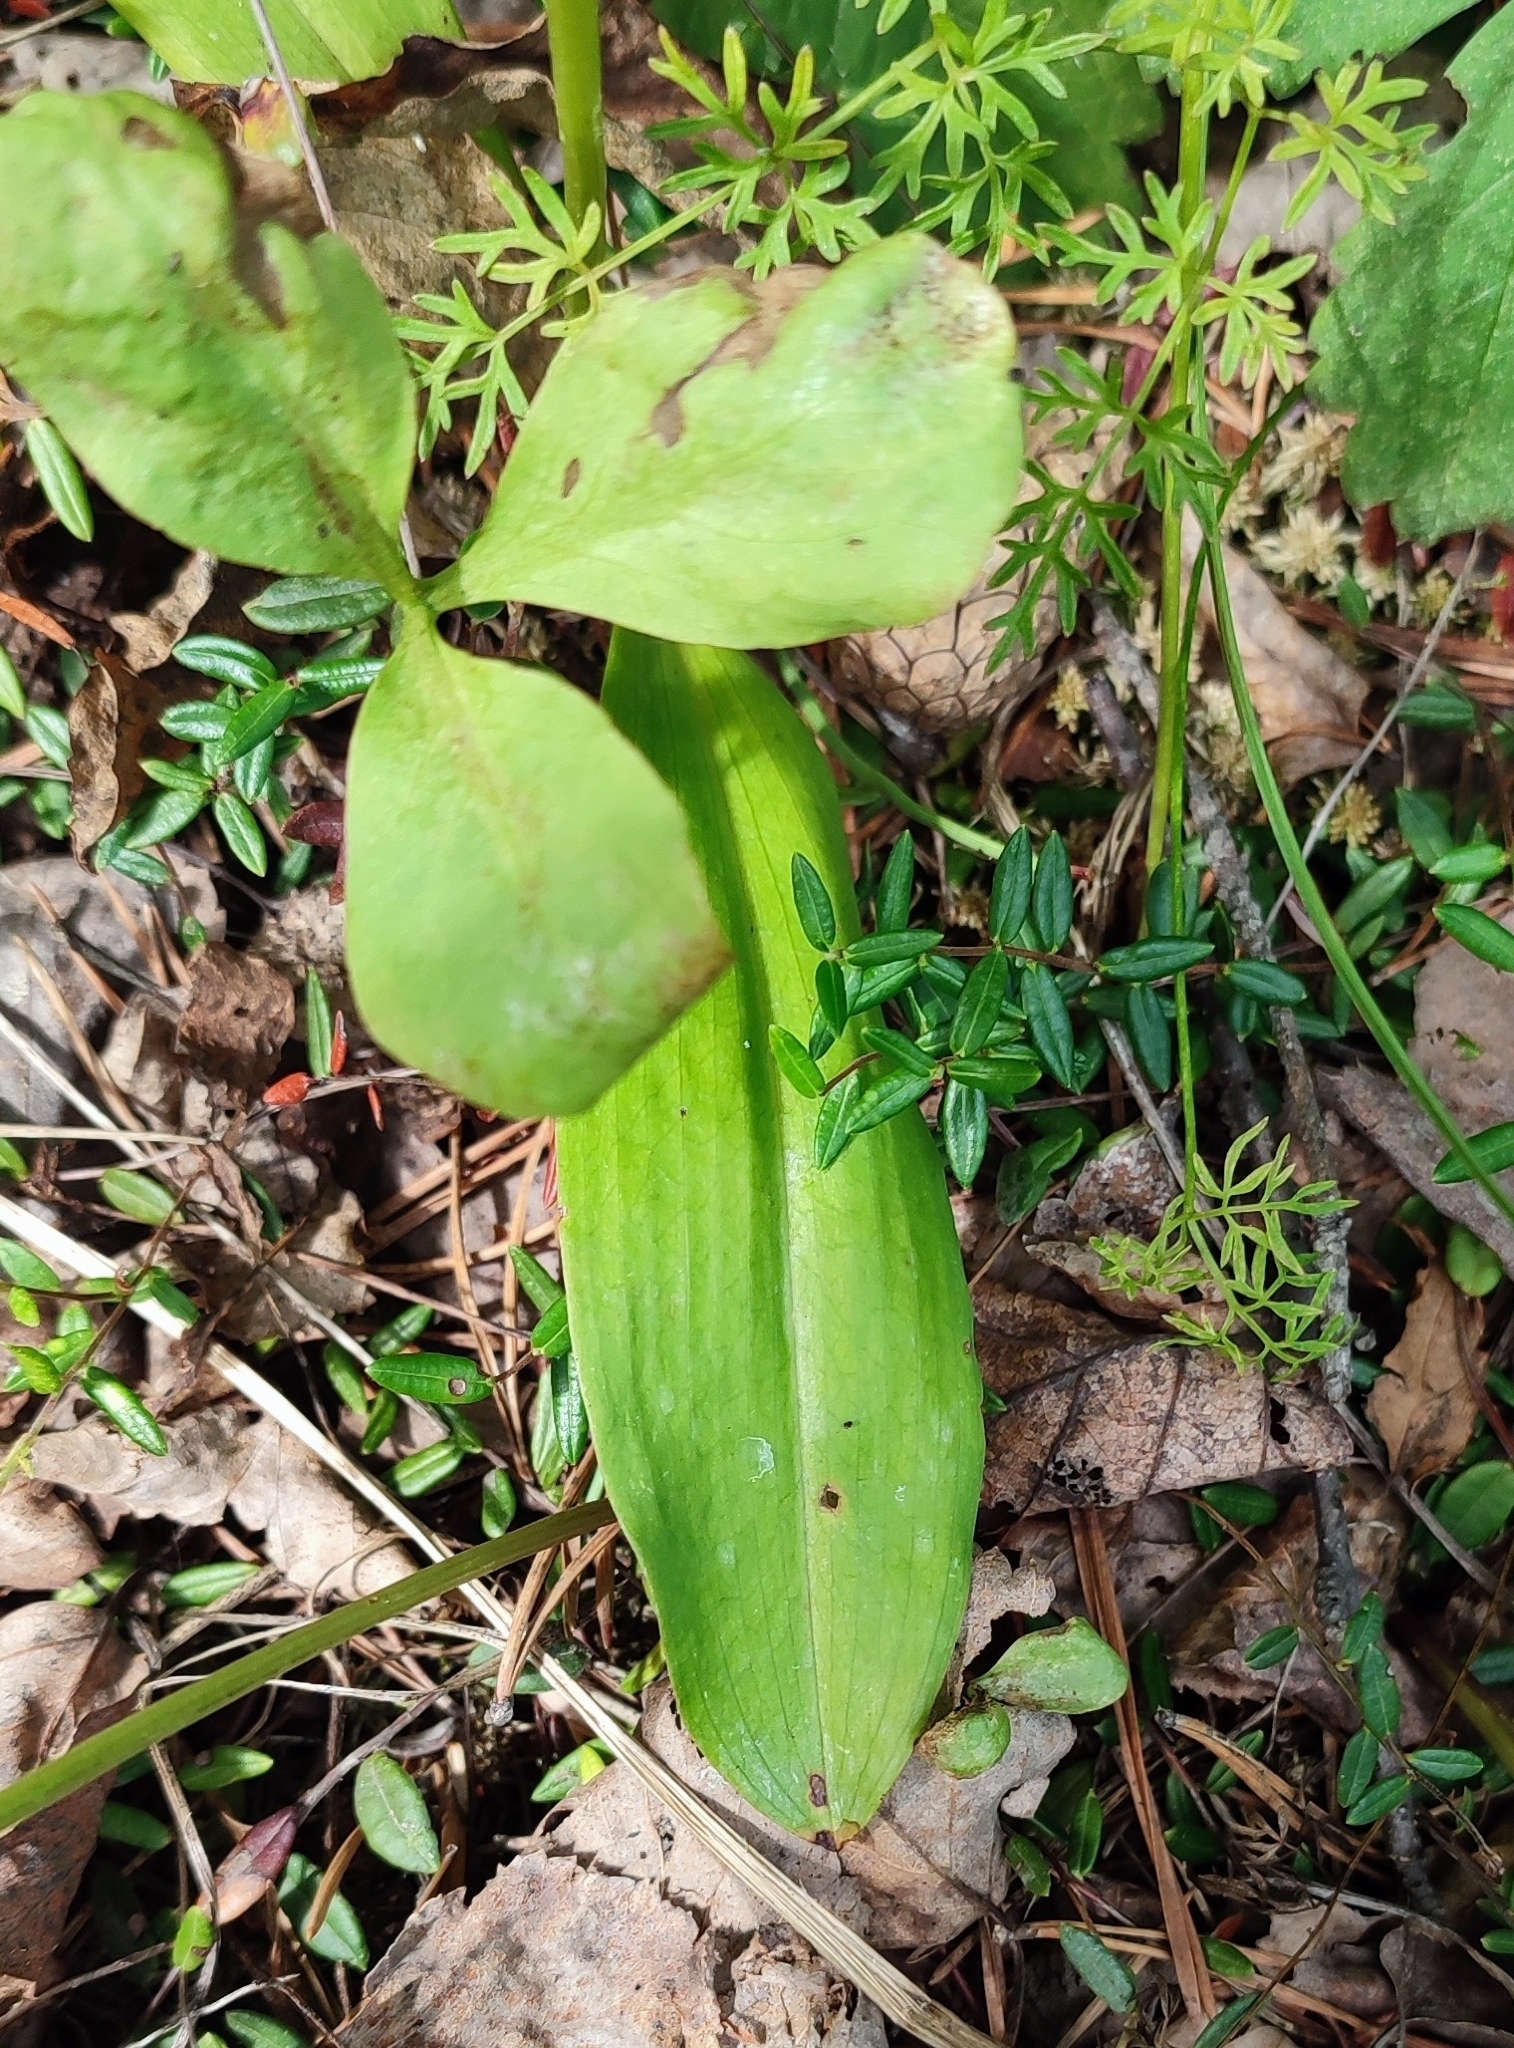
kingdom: Plantae
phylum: Tracheophyta
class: Liliopsida
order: Asparagales
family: Orchidaceae
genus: Platanthera
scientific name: Platanthera bifolia
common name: Lesser butterfly-orchid
